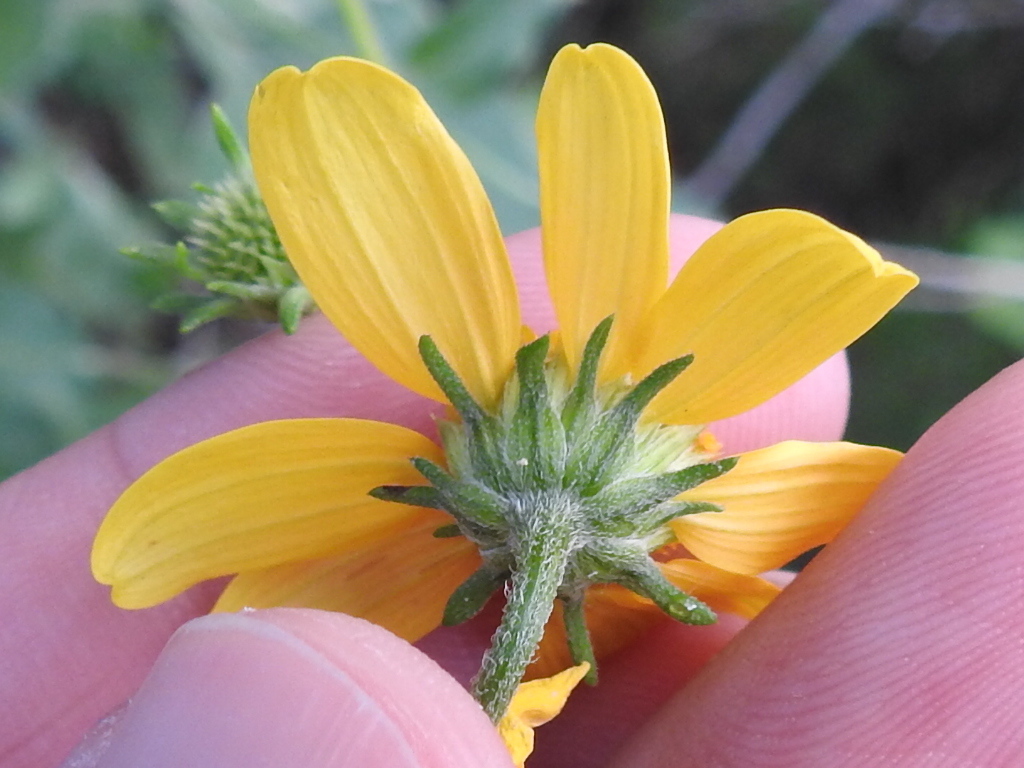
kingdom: Plantae
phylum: Tracheophyta
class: Magnoliopsida
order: Asterales
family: Asteraceae
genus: Viguiera
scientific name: Viguiera dentata
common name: Toothleaf
